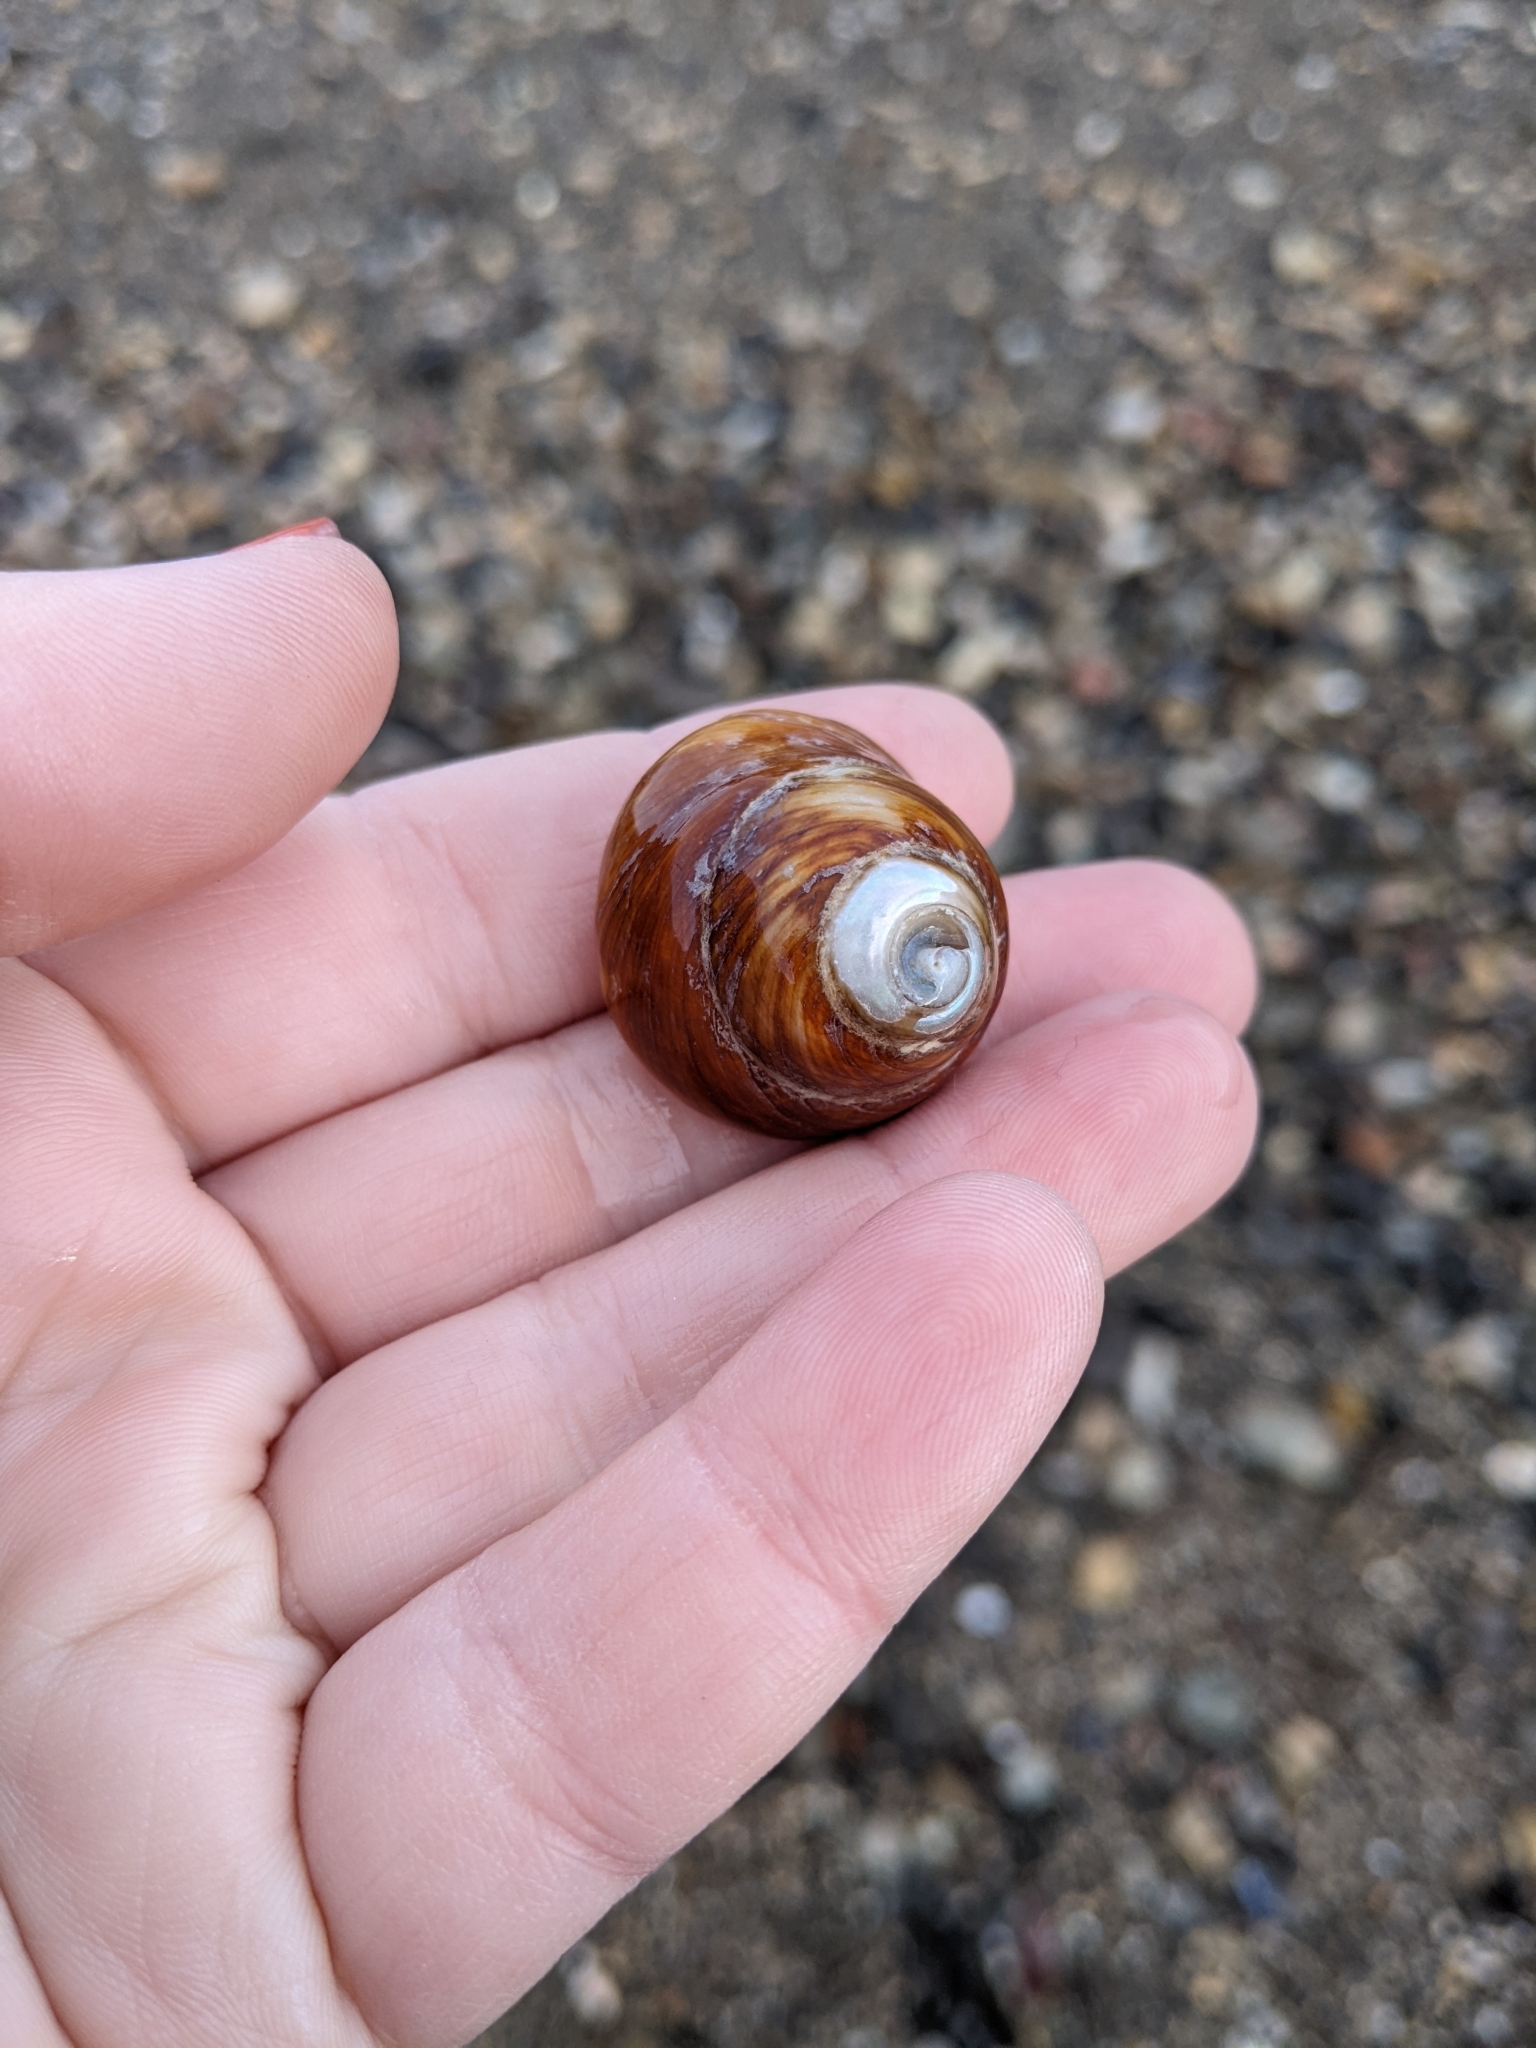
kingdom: Animalia
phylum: Mollusca
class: Gastropoda
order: Trochida
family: Tegulidae
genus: Tegula
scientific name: Tegula brunnea
